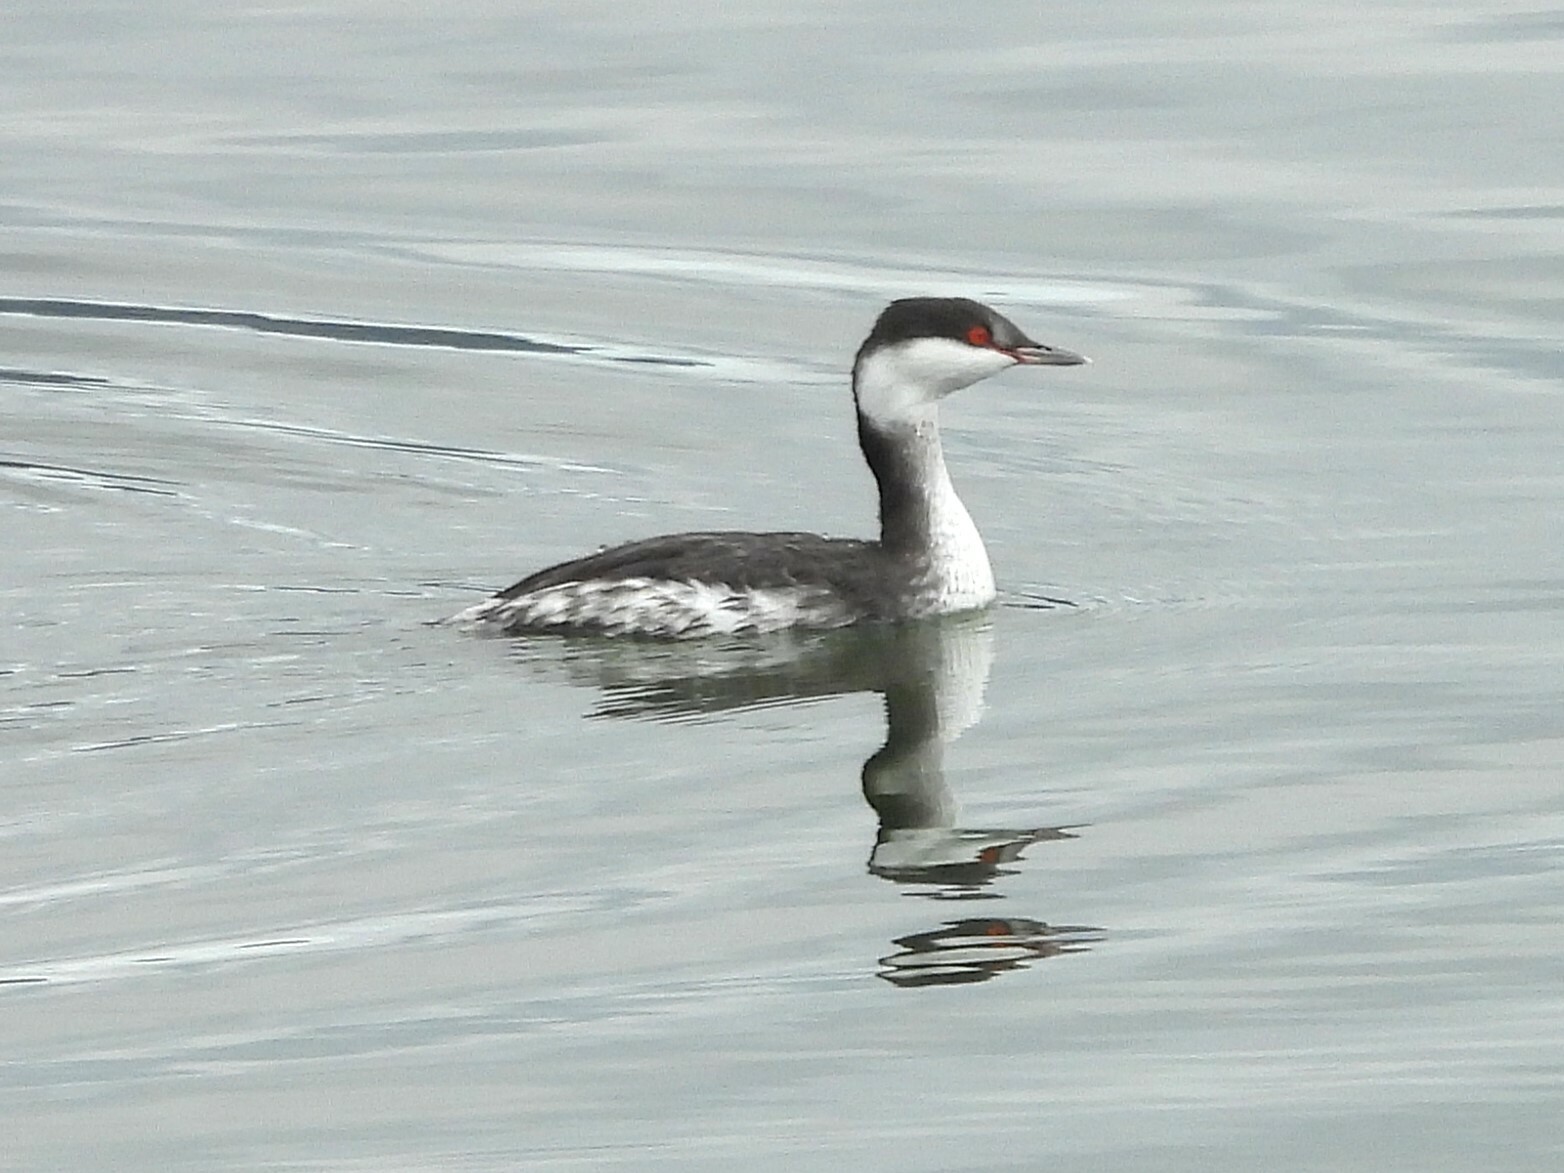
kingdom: Animalia
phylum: Chordata
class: Aves
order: Podicipediformes
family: Podicipedidae
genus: Podiceps
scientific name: Podiceps auritus
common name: Horned grebe
